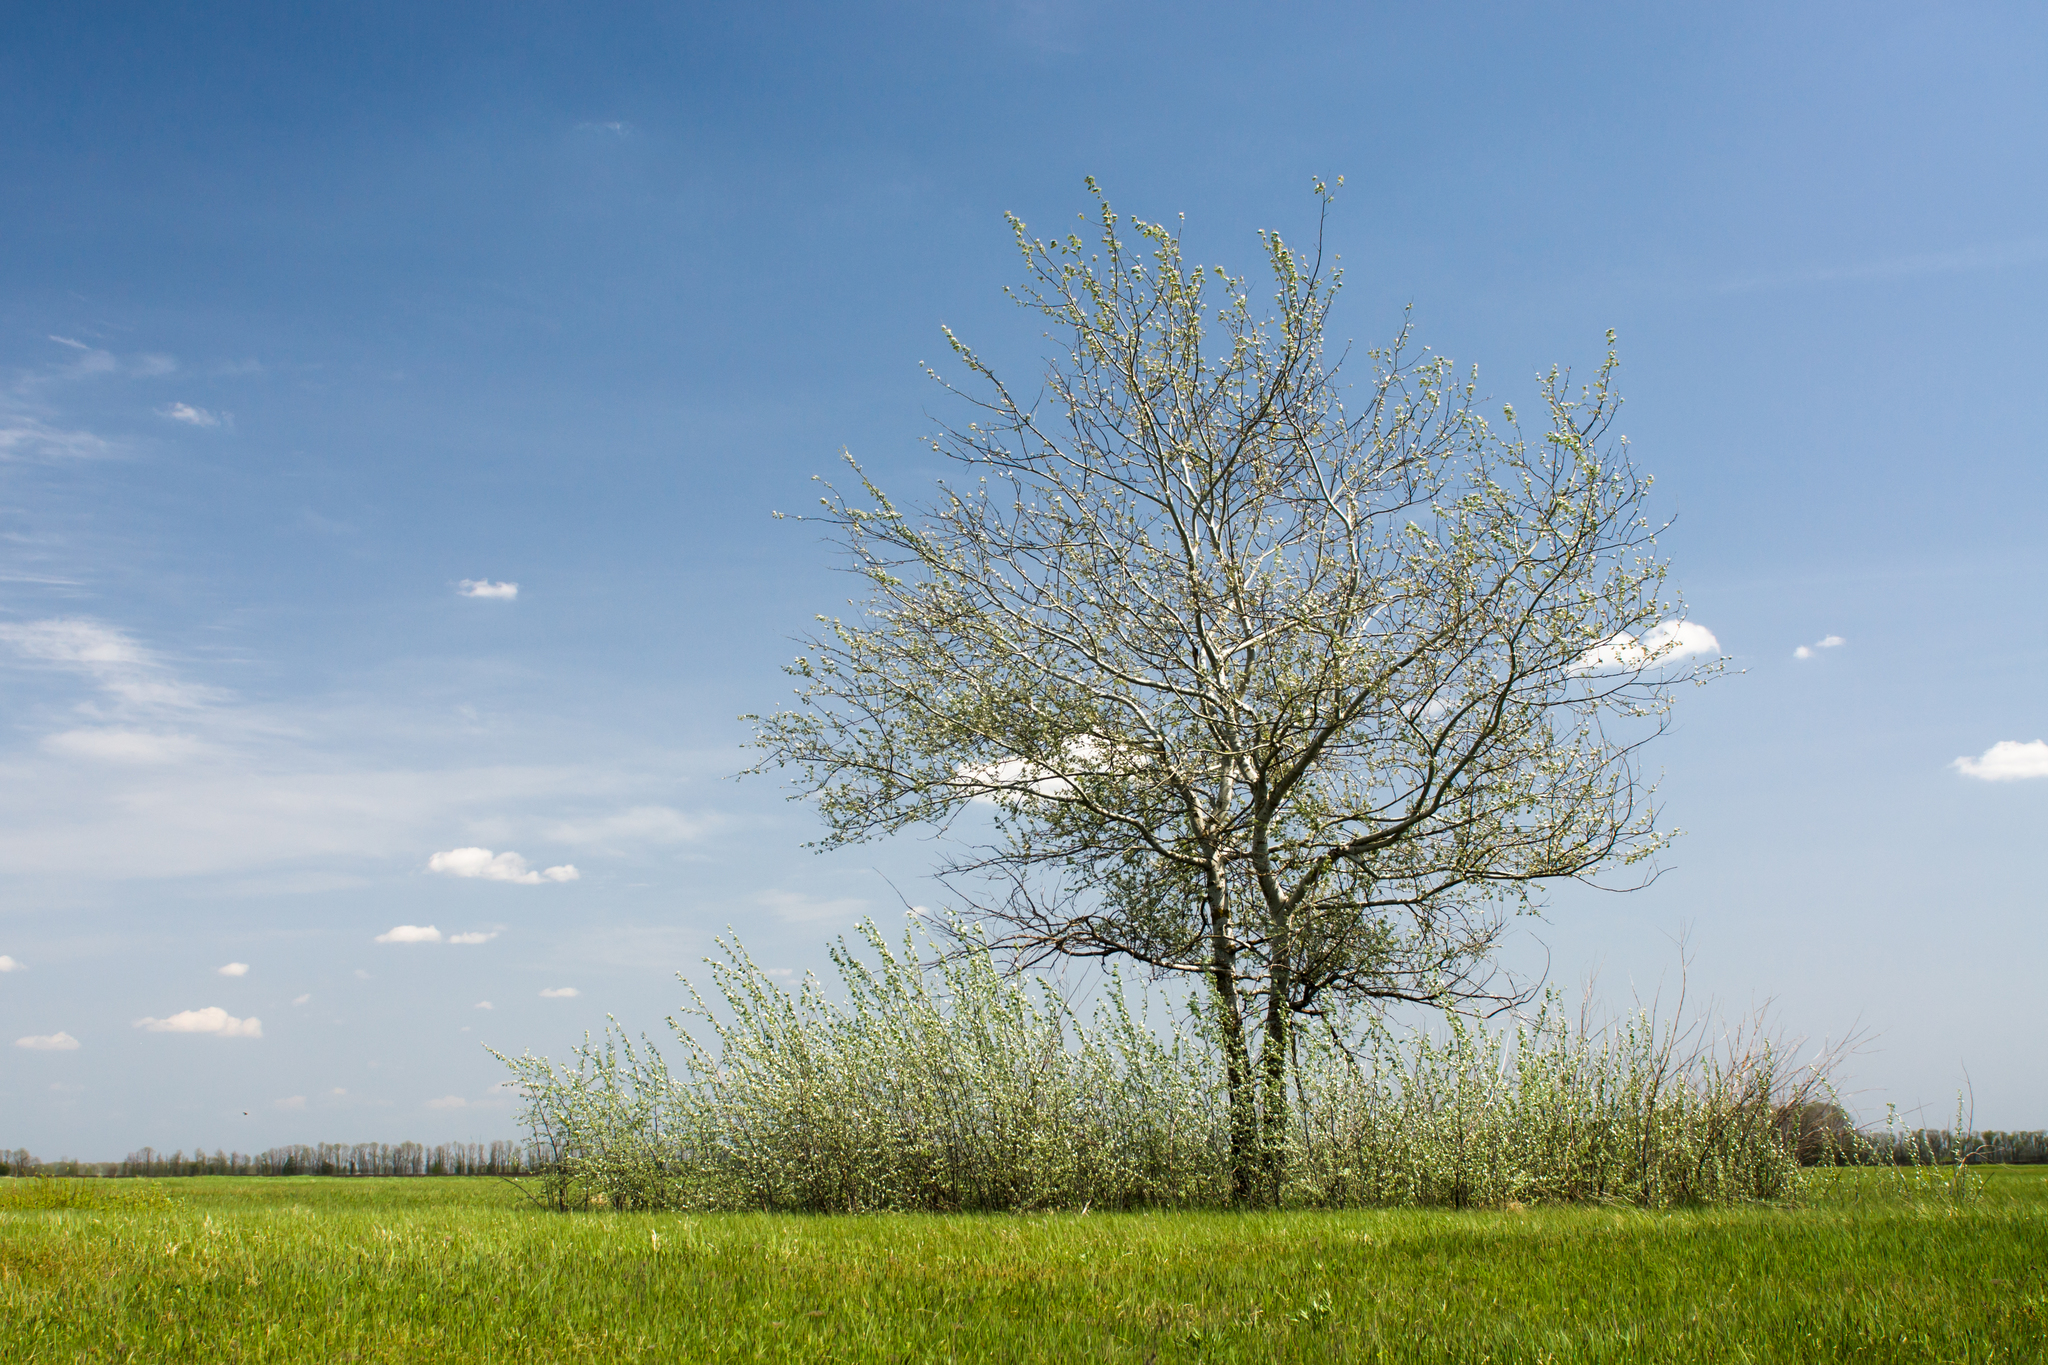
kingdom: Plantae
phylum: Tracheophyta
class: Magnoliopsida
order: Malpighiales
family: Salicaceae
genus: Populus
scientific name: Populus alba
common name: White poplar
